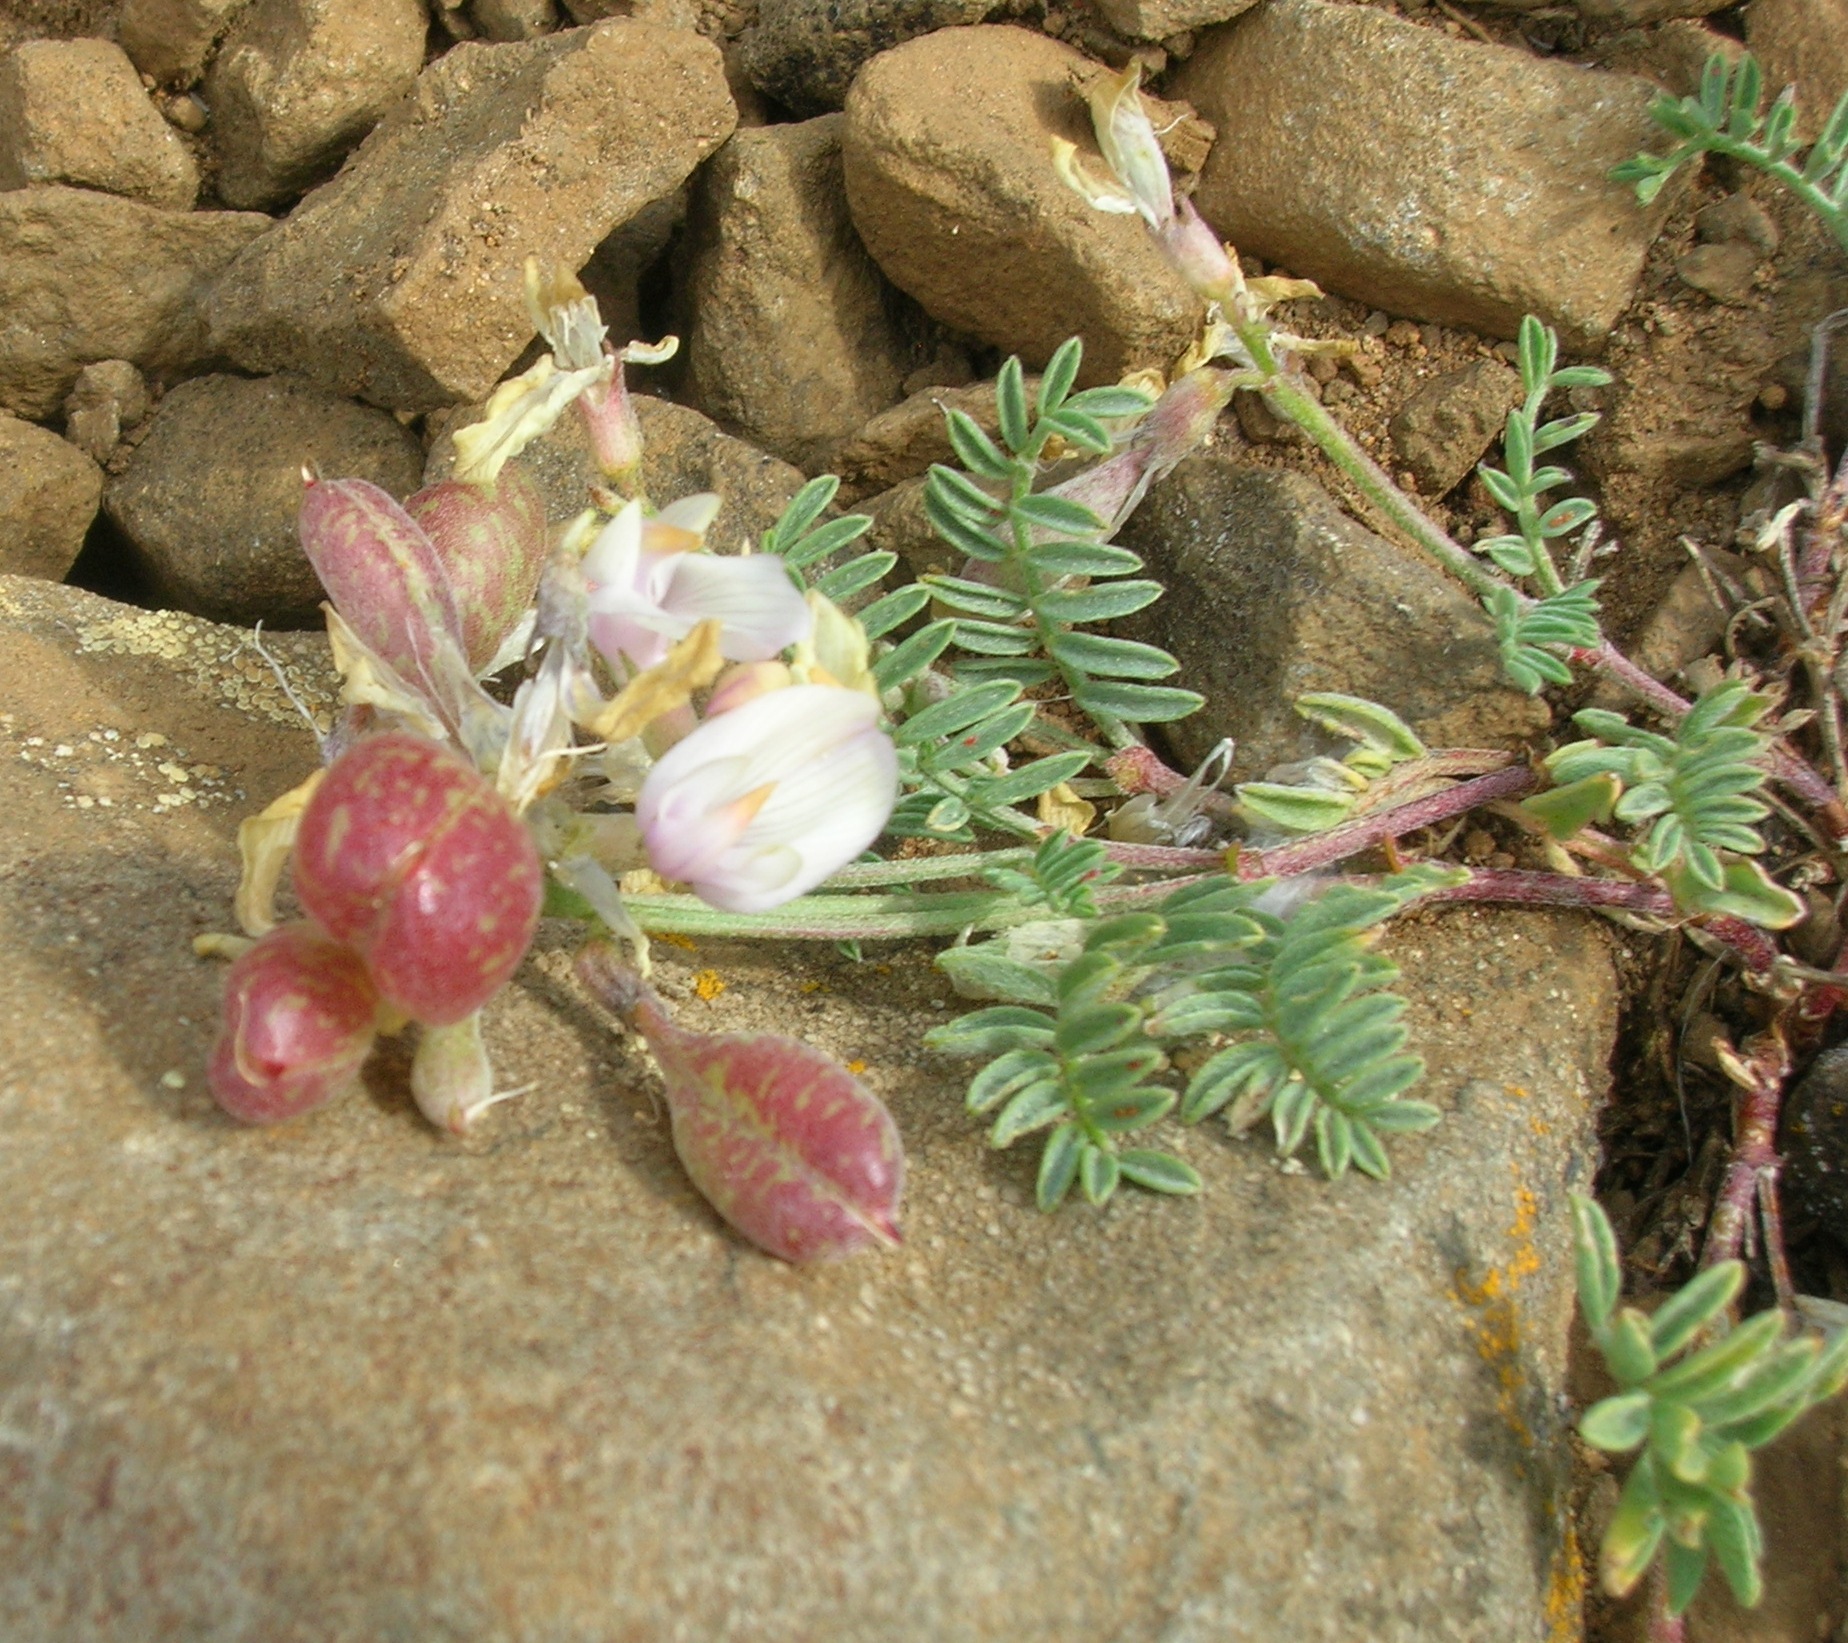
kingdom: Plantae
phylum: Tracheophyta
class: Magnoliopsida
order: Fabales
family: Fabaceae
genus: Astragalus
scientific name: Astragalus whitneyi
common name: Balloonpod milkvetch
